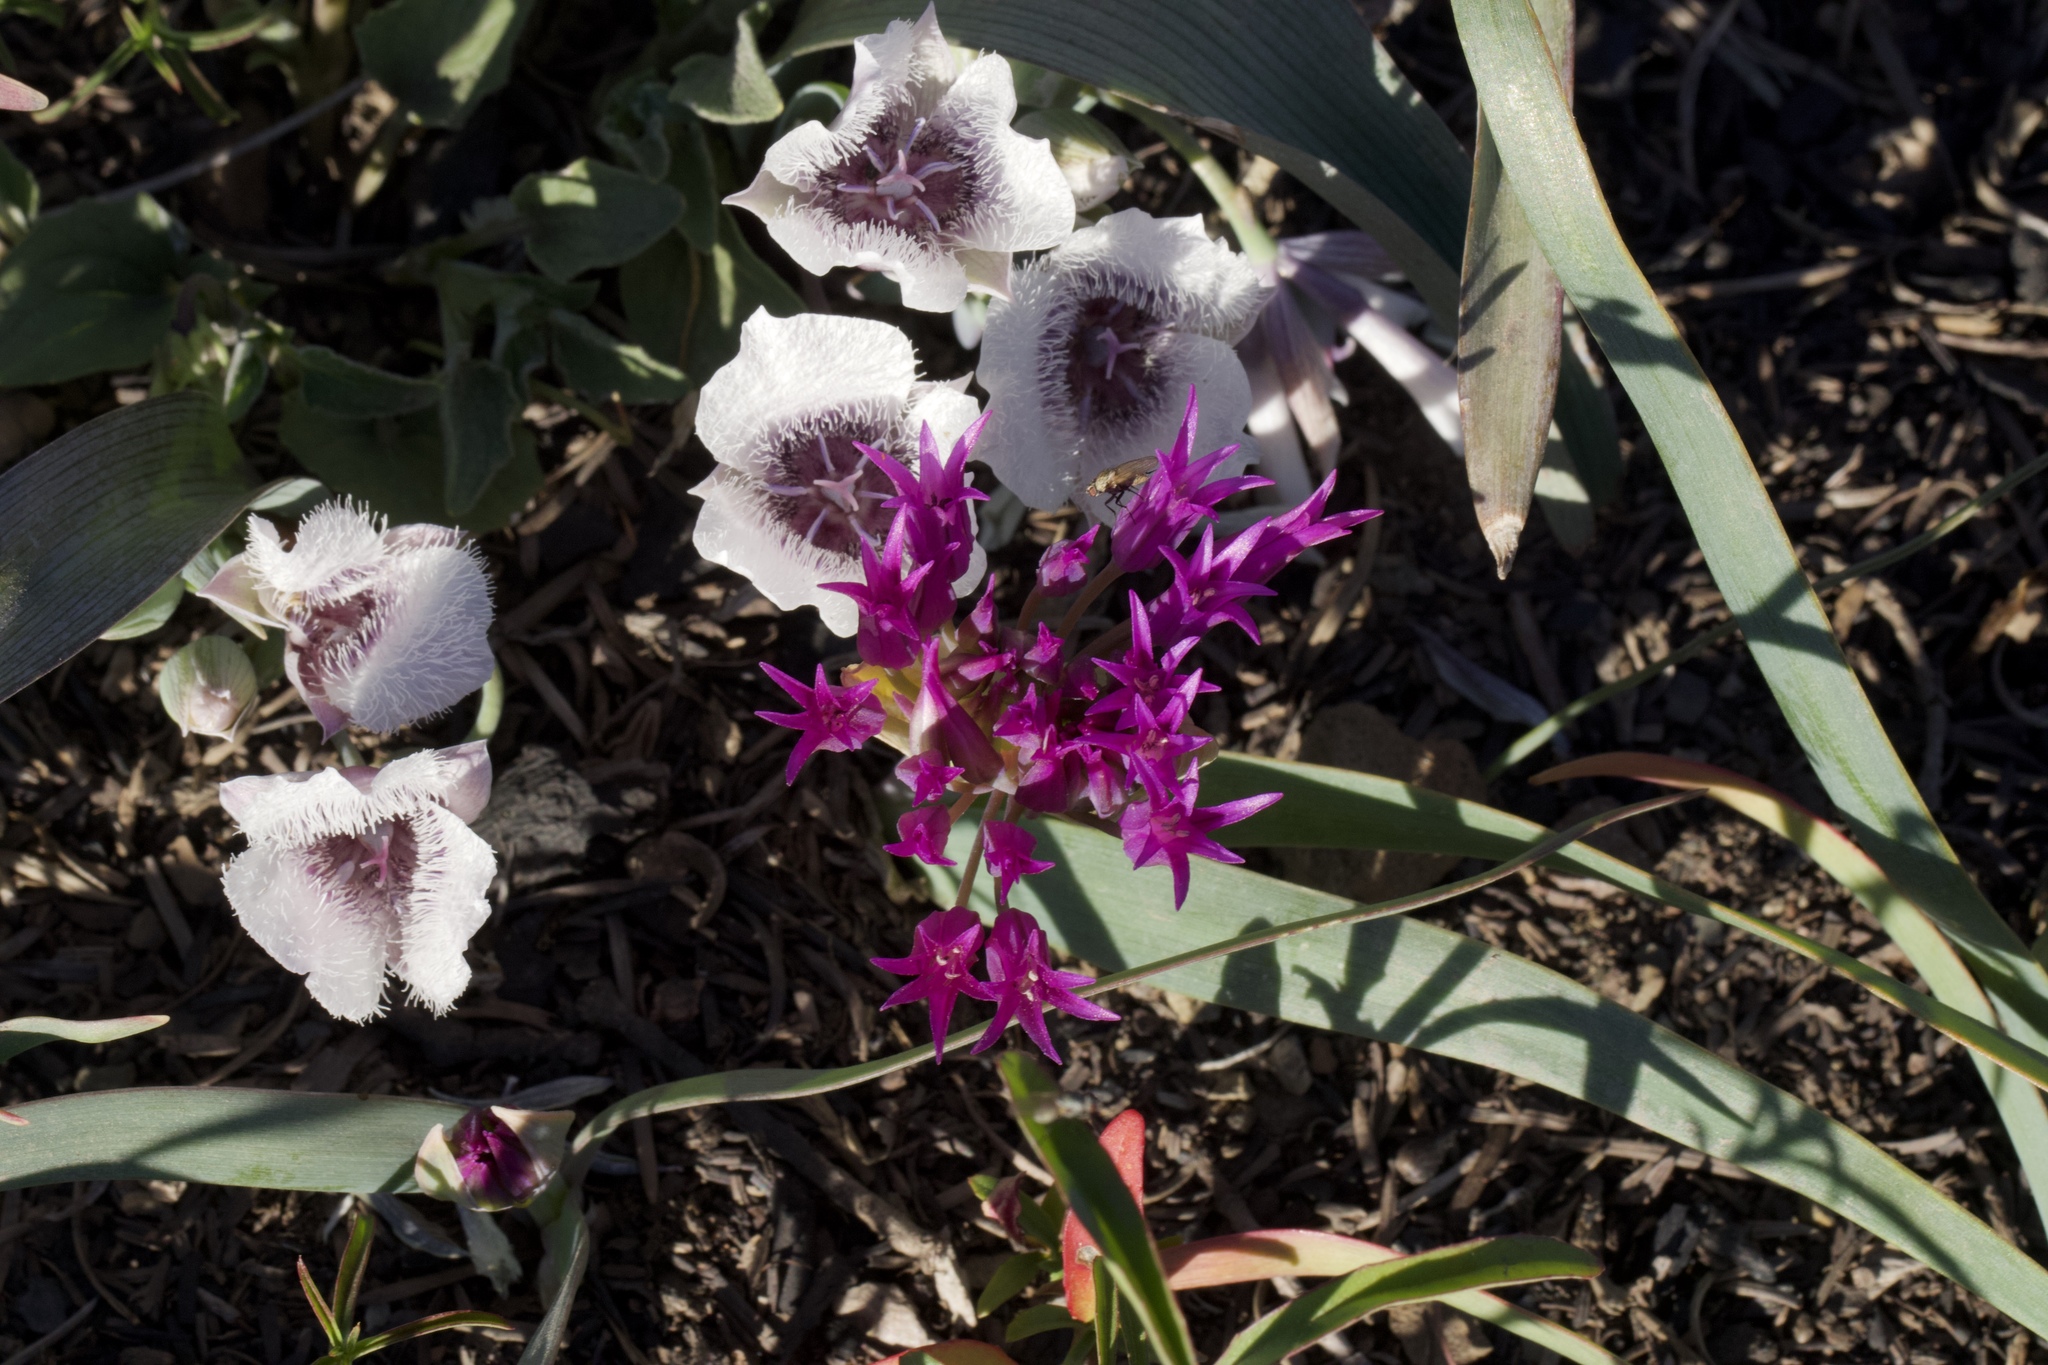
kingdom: Plantae
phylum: Tracheophyta
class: Liliopsida
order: Asparagales
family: Amaryllidaceae
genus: Allium
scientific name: Allium falcifolium
